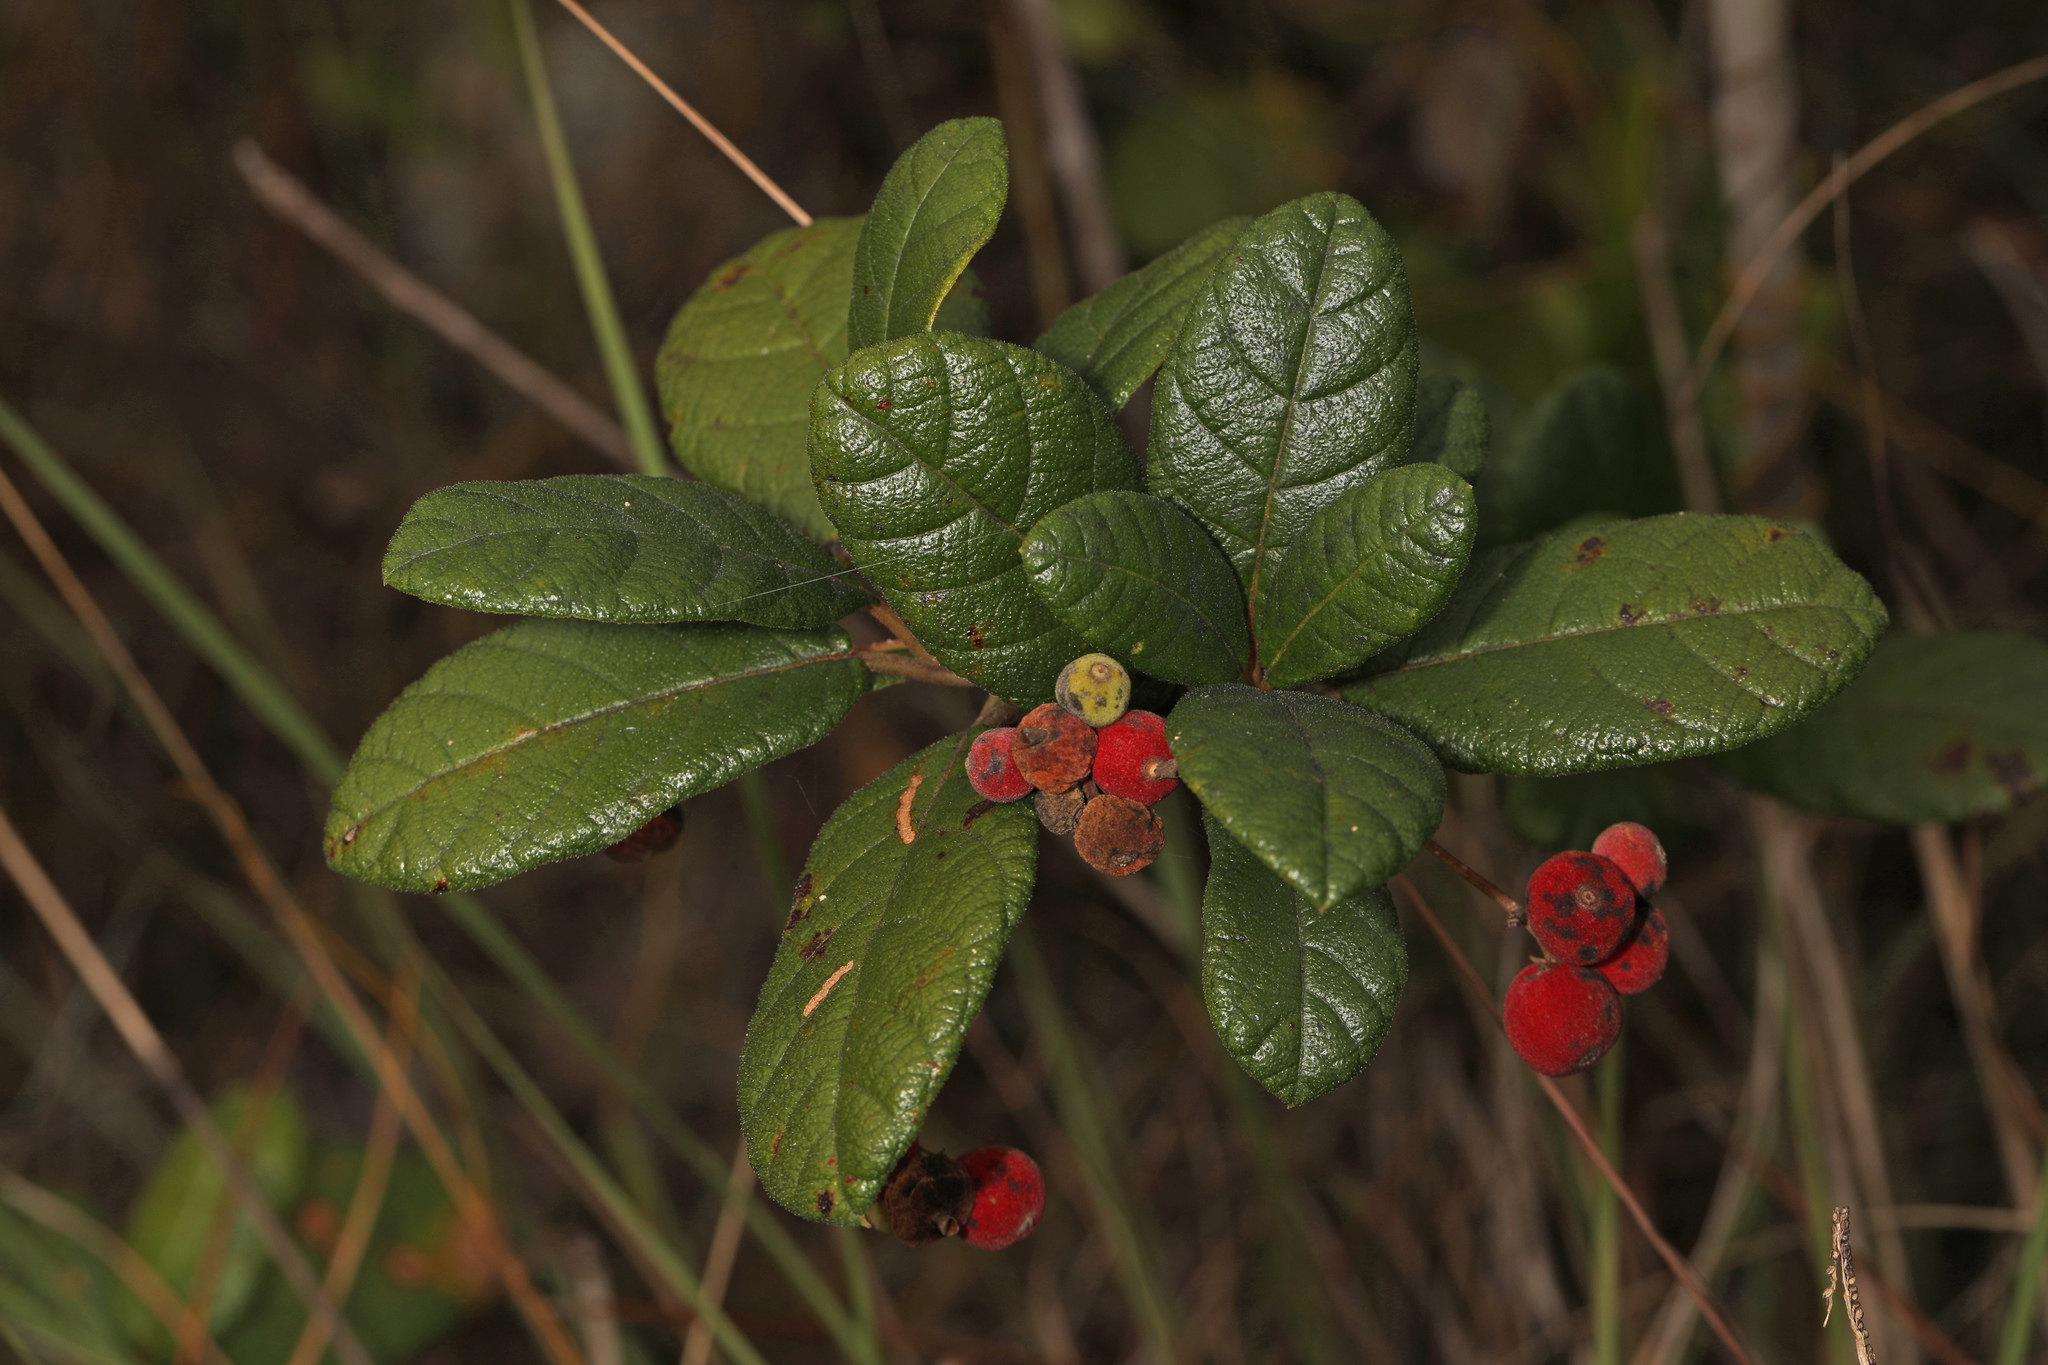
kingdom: Plantae
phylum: Tracheophyta
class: Magnoliopsida
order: Gentianales
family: Rubiaceae
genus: Guettarda
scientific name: Guettarda scabra
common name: Pigeon bay
